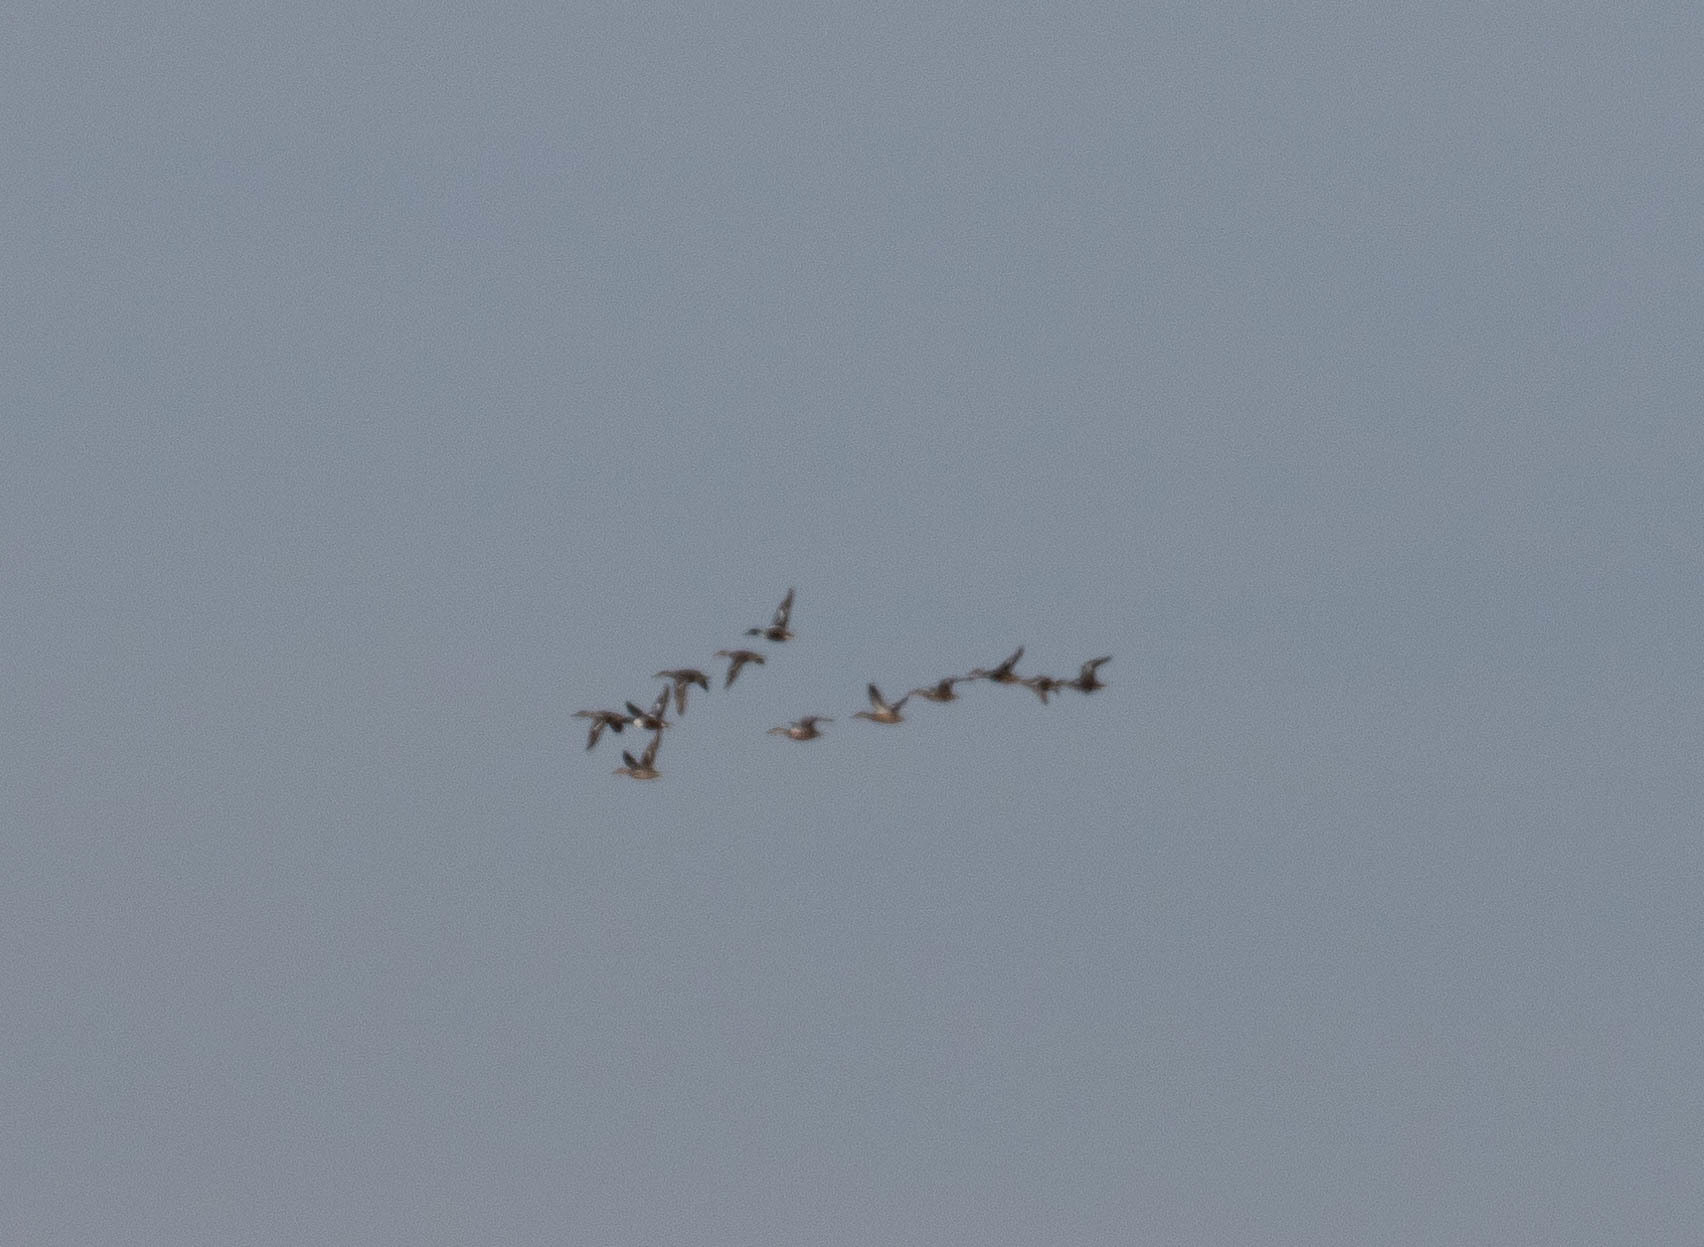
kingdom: Animalia
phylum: Chordata
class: Aves
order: Anseriformes
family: Anatidae
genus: Spatula
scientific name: Spatula clypeata
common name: Northern shoveler
